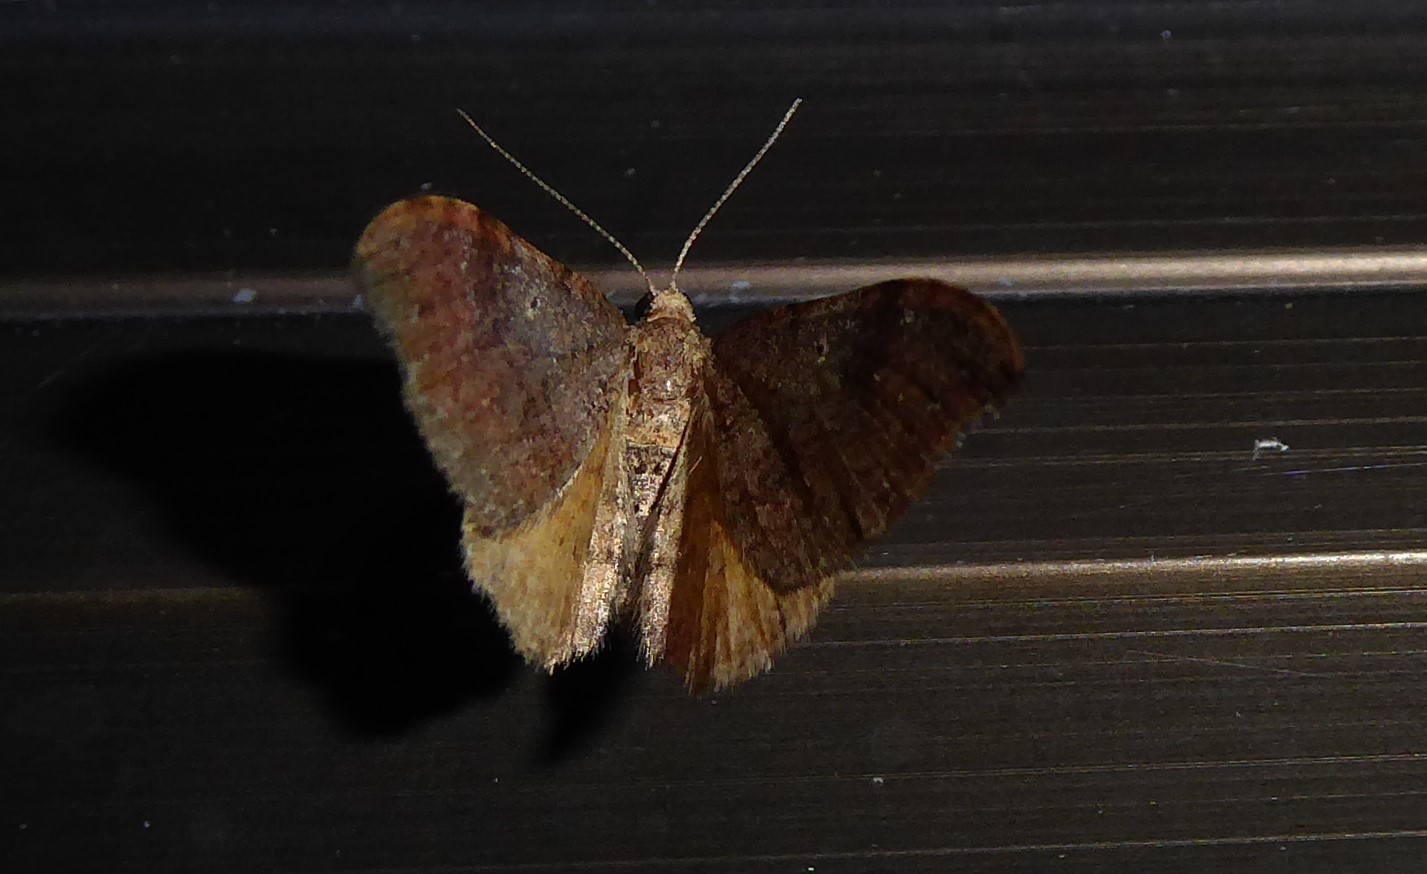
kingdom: Animalia
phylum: Arthropoda
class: Insecta
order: Lepidoptera
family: Geometridae
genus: Homodotis
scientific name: Homodotis megaspilata
